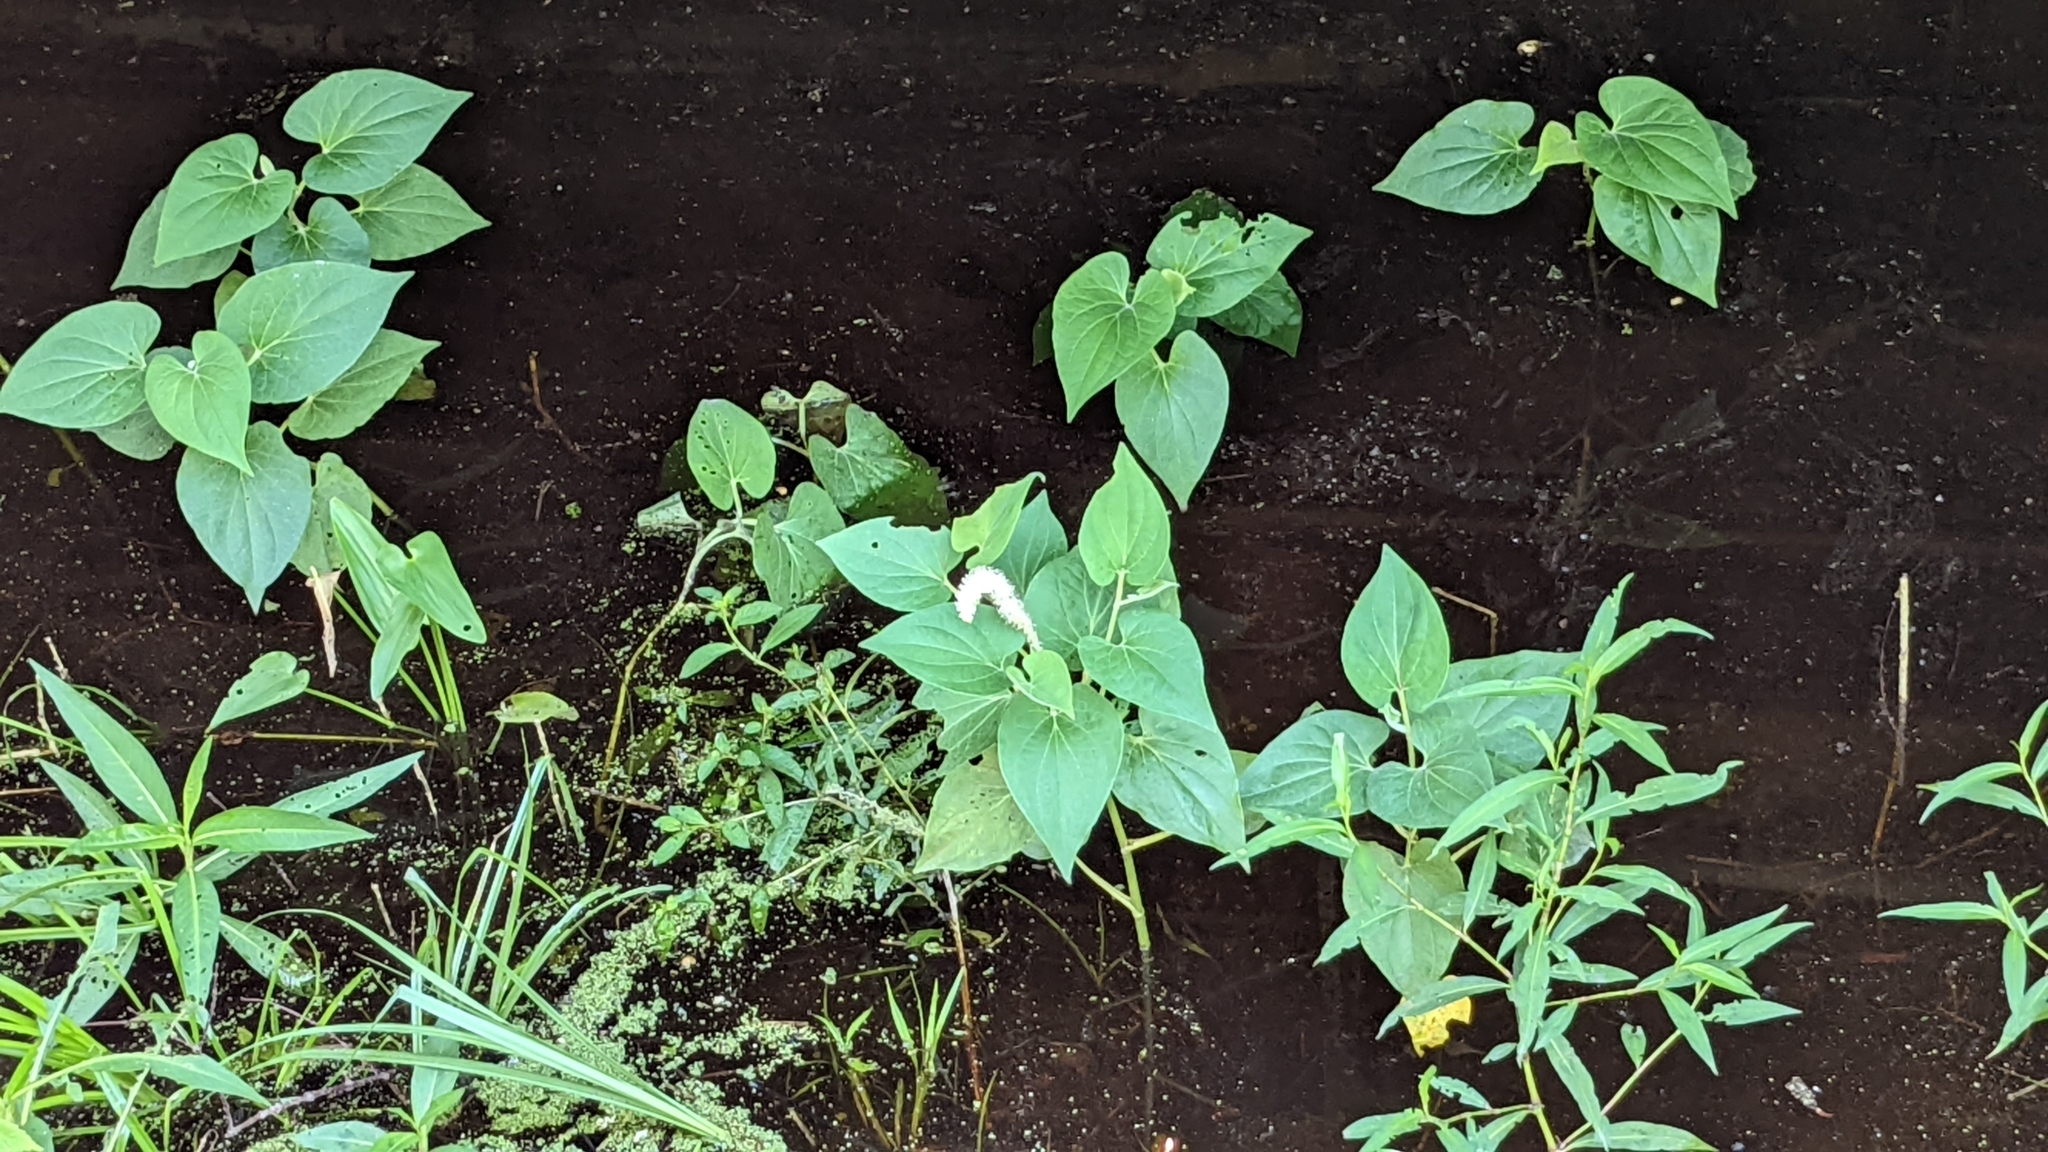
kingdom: Plantae
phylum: Tracheophyta
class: Magnoliopsida
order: Piperales
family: Saururaceae
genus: Saururus
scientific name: Saururus cernuus
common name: Lizard's-tail
